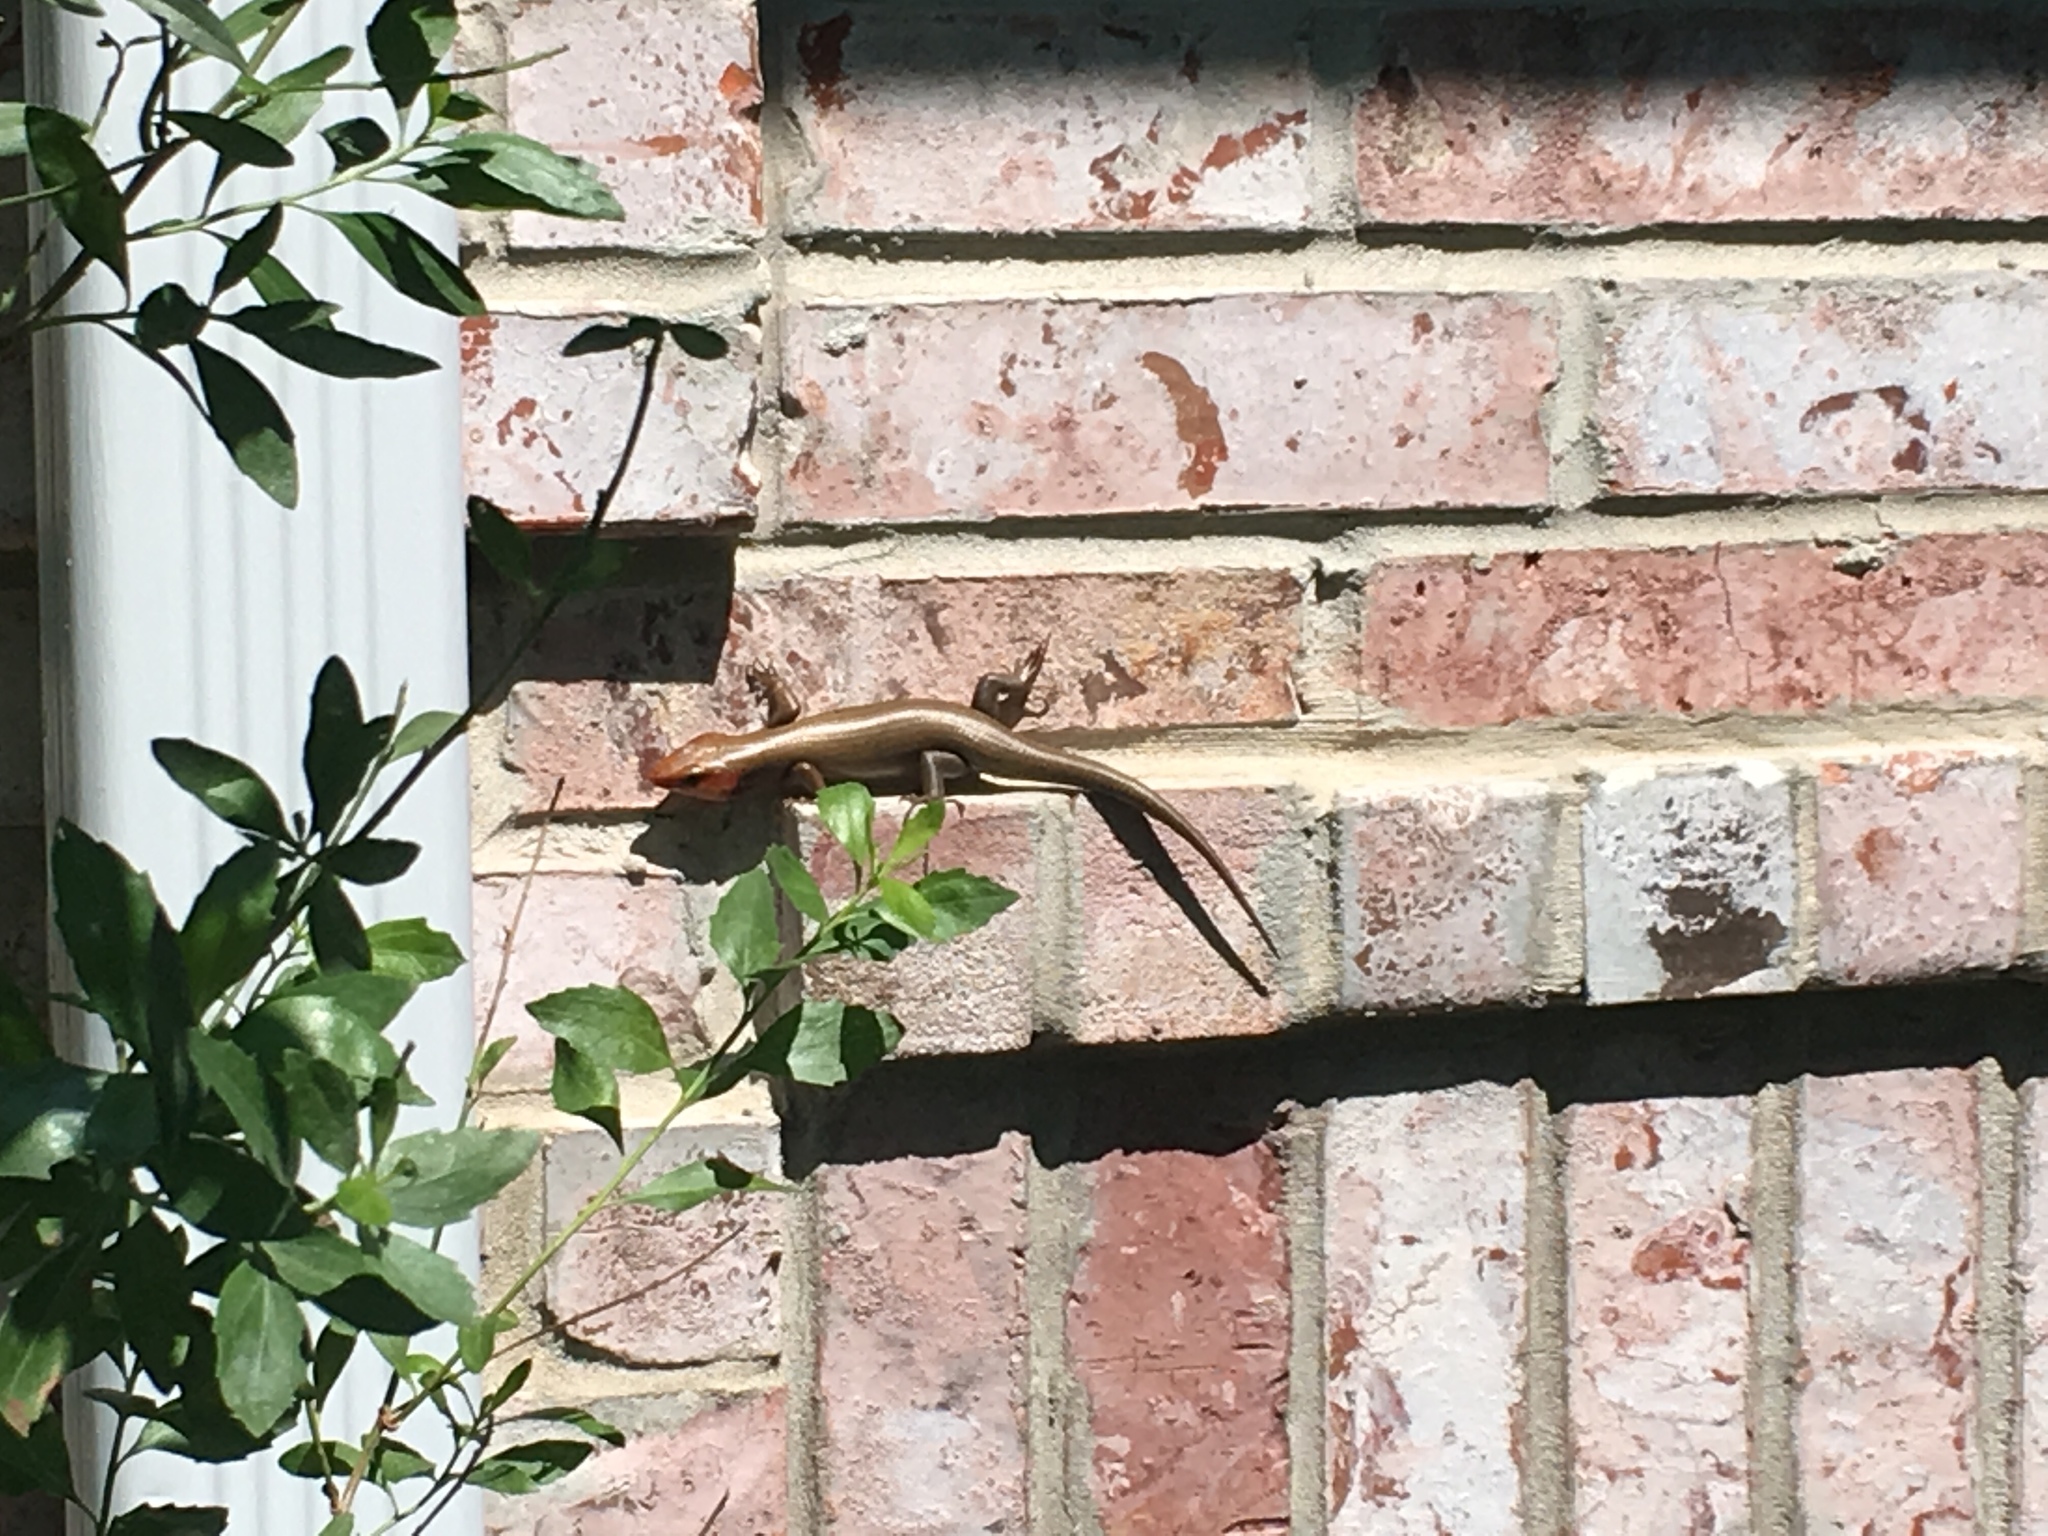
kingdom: Animalia
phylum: Chordata
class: Squamata
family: Scincidae
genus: Plestiodon
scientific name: Plestiodon
